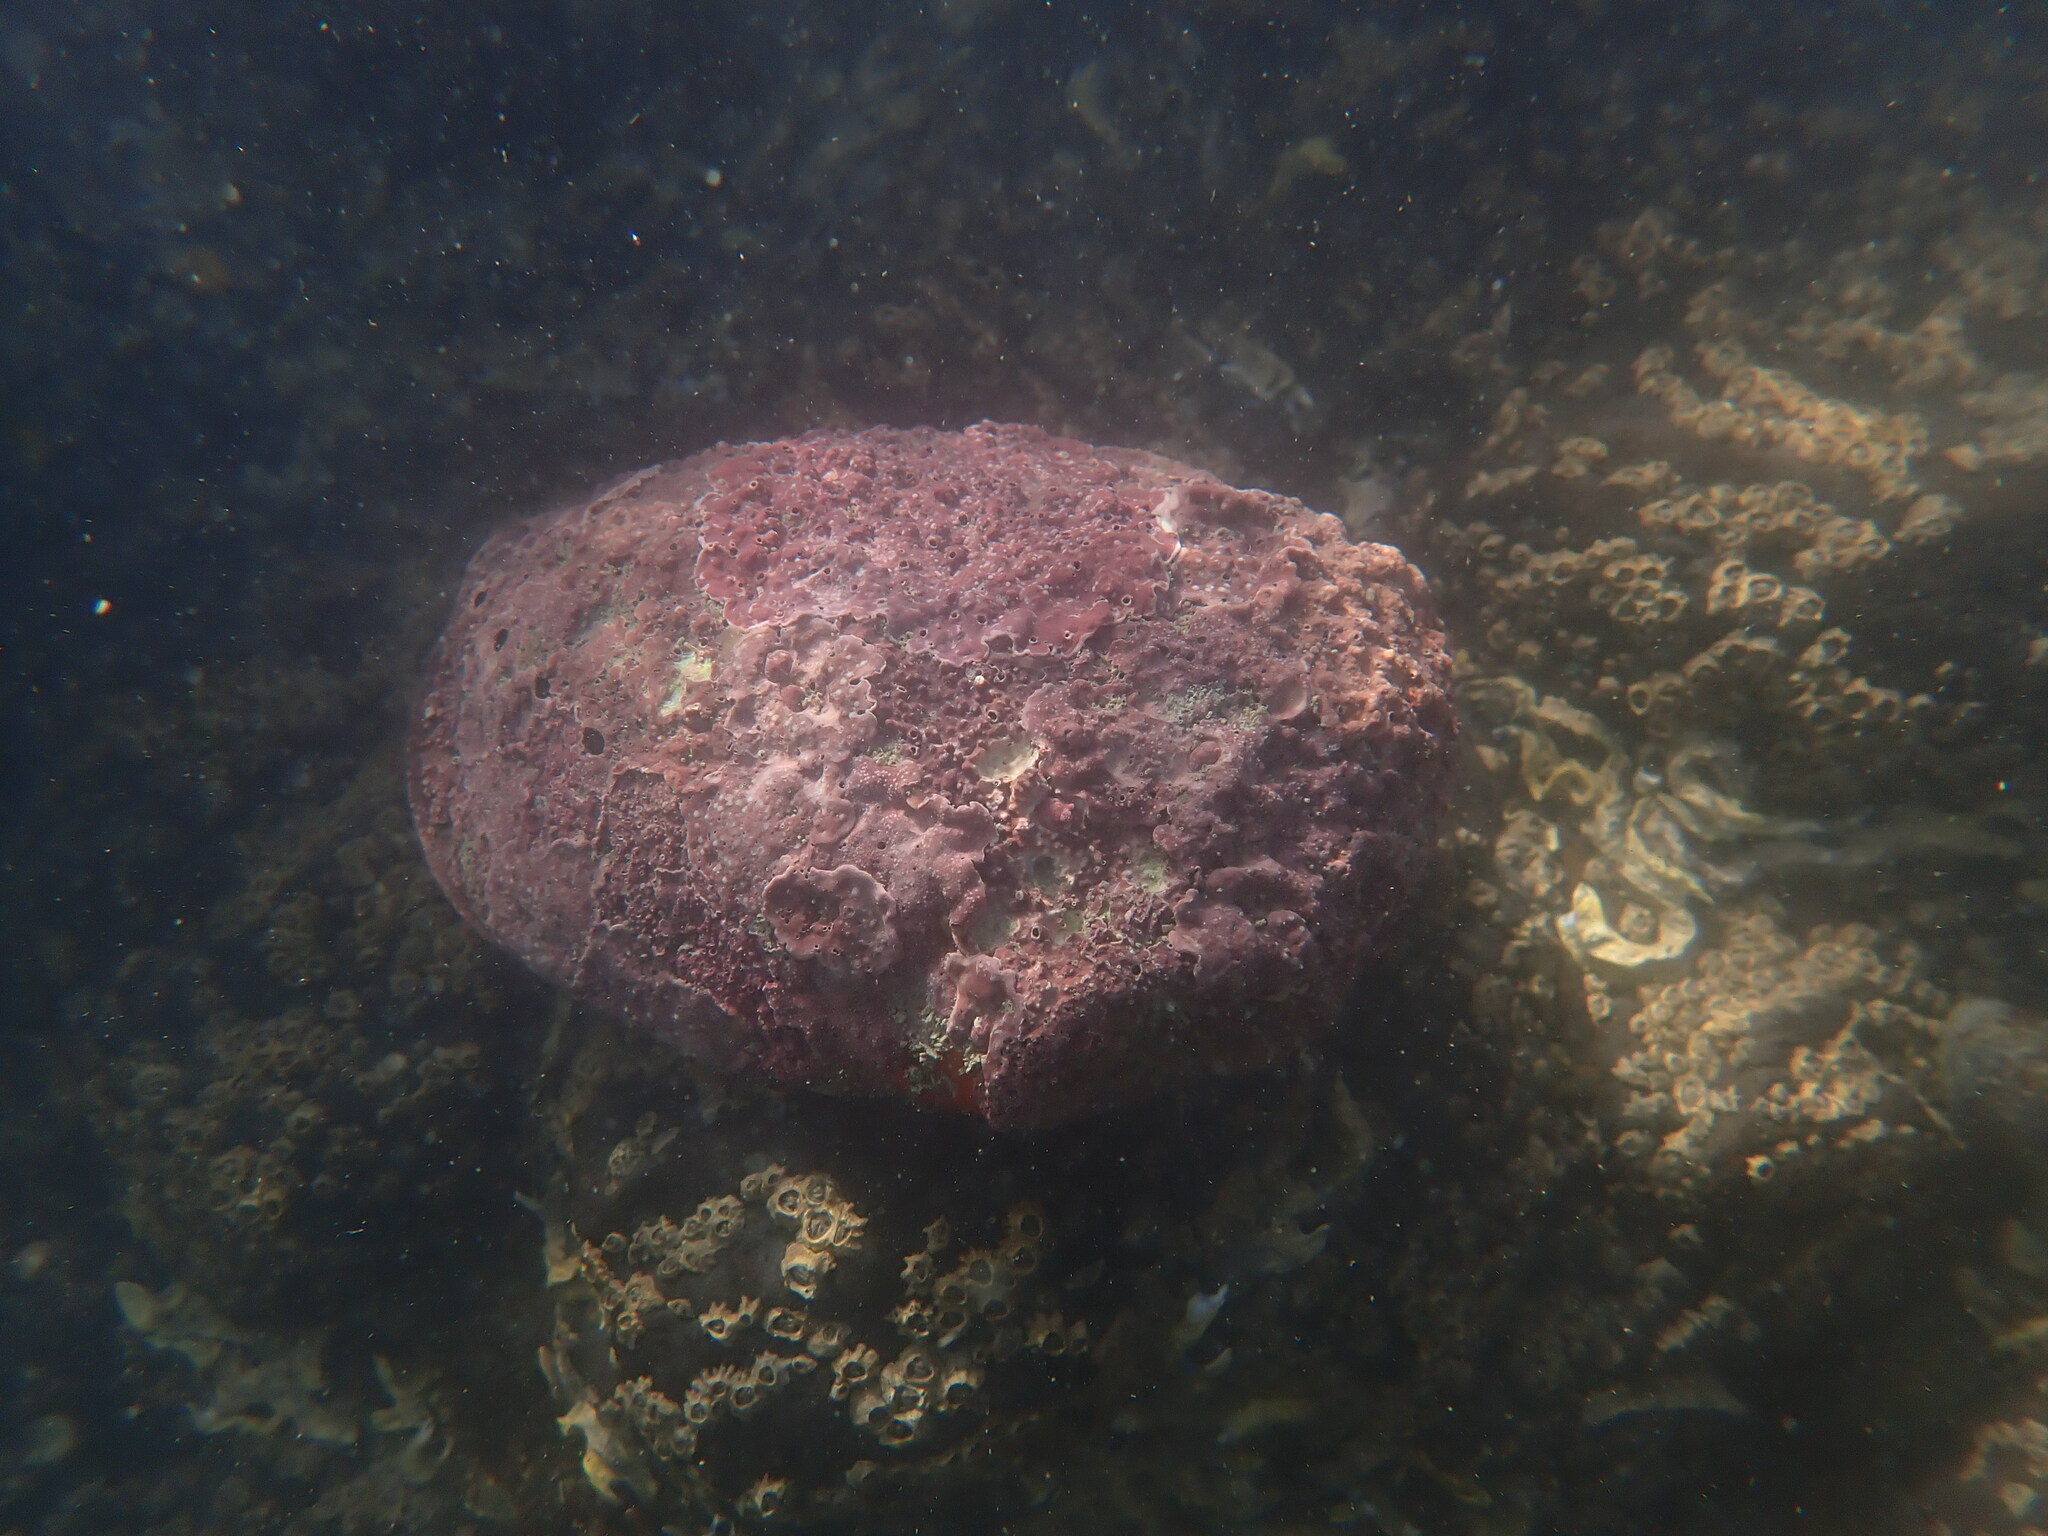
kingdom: Animalia
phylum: Mollusca
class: Gastropoda
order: Lepetellida
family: Haliotidae
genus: Haliotis
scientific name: Haliotis iris
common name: Abalone
